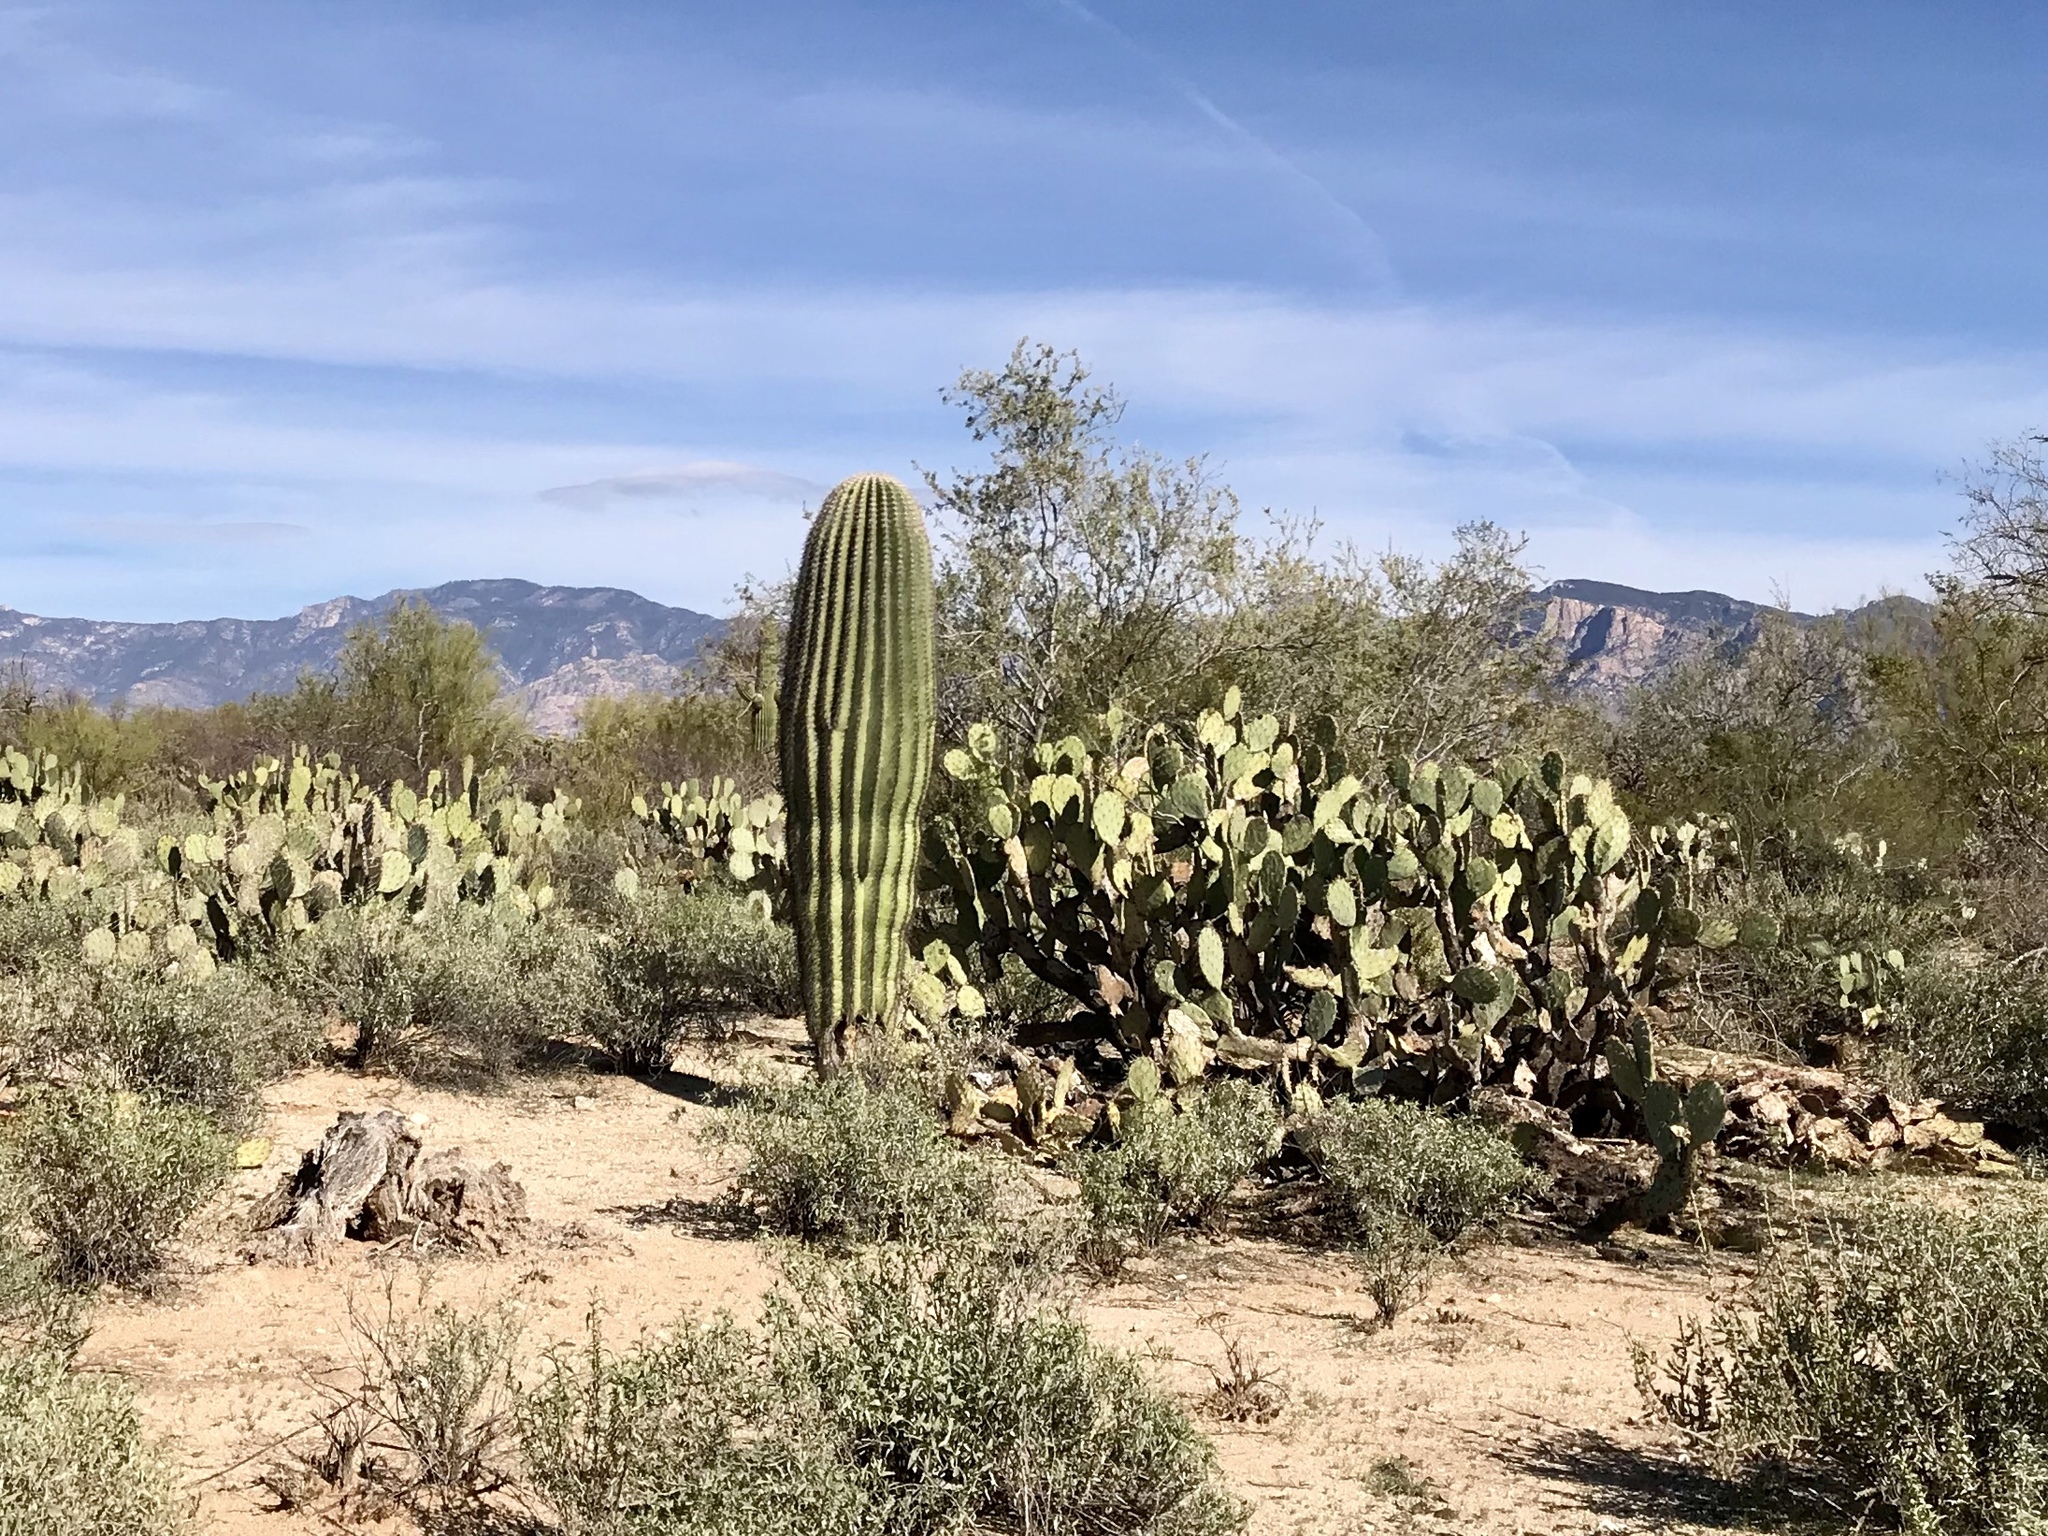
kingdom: Plantae
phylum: Tracheophyta
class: Magnoliopsida
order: Caryophyllales
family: Cactaceae
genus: Carnegiea
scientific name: Carnegiea gigantea
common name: Saguaro
